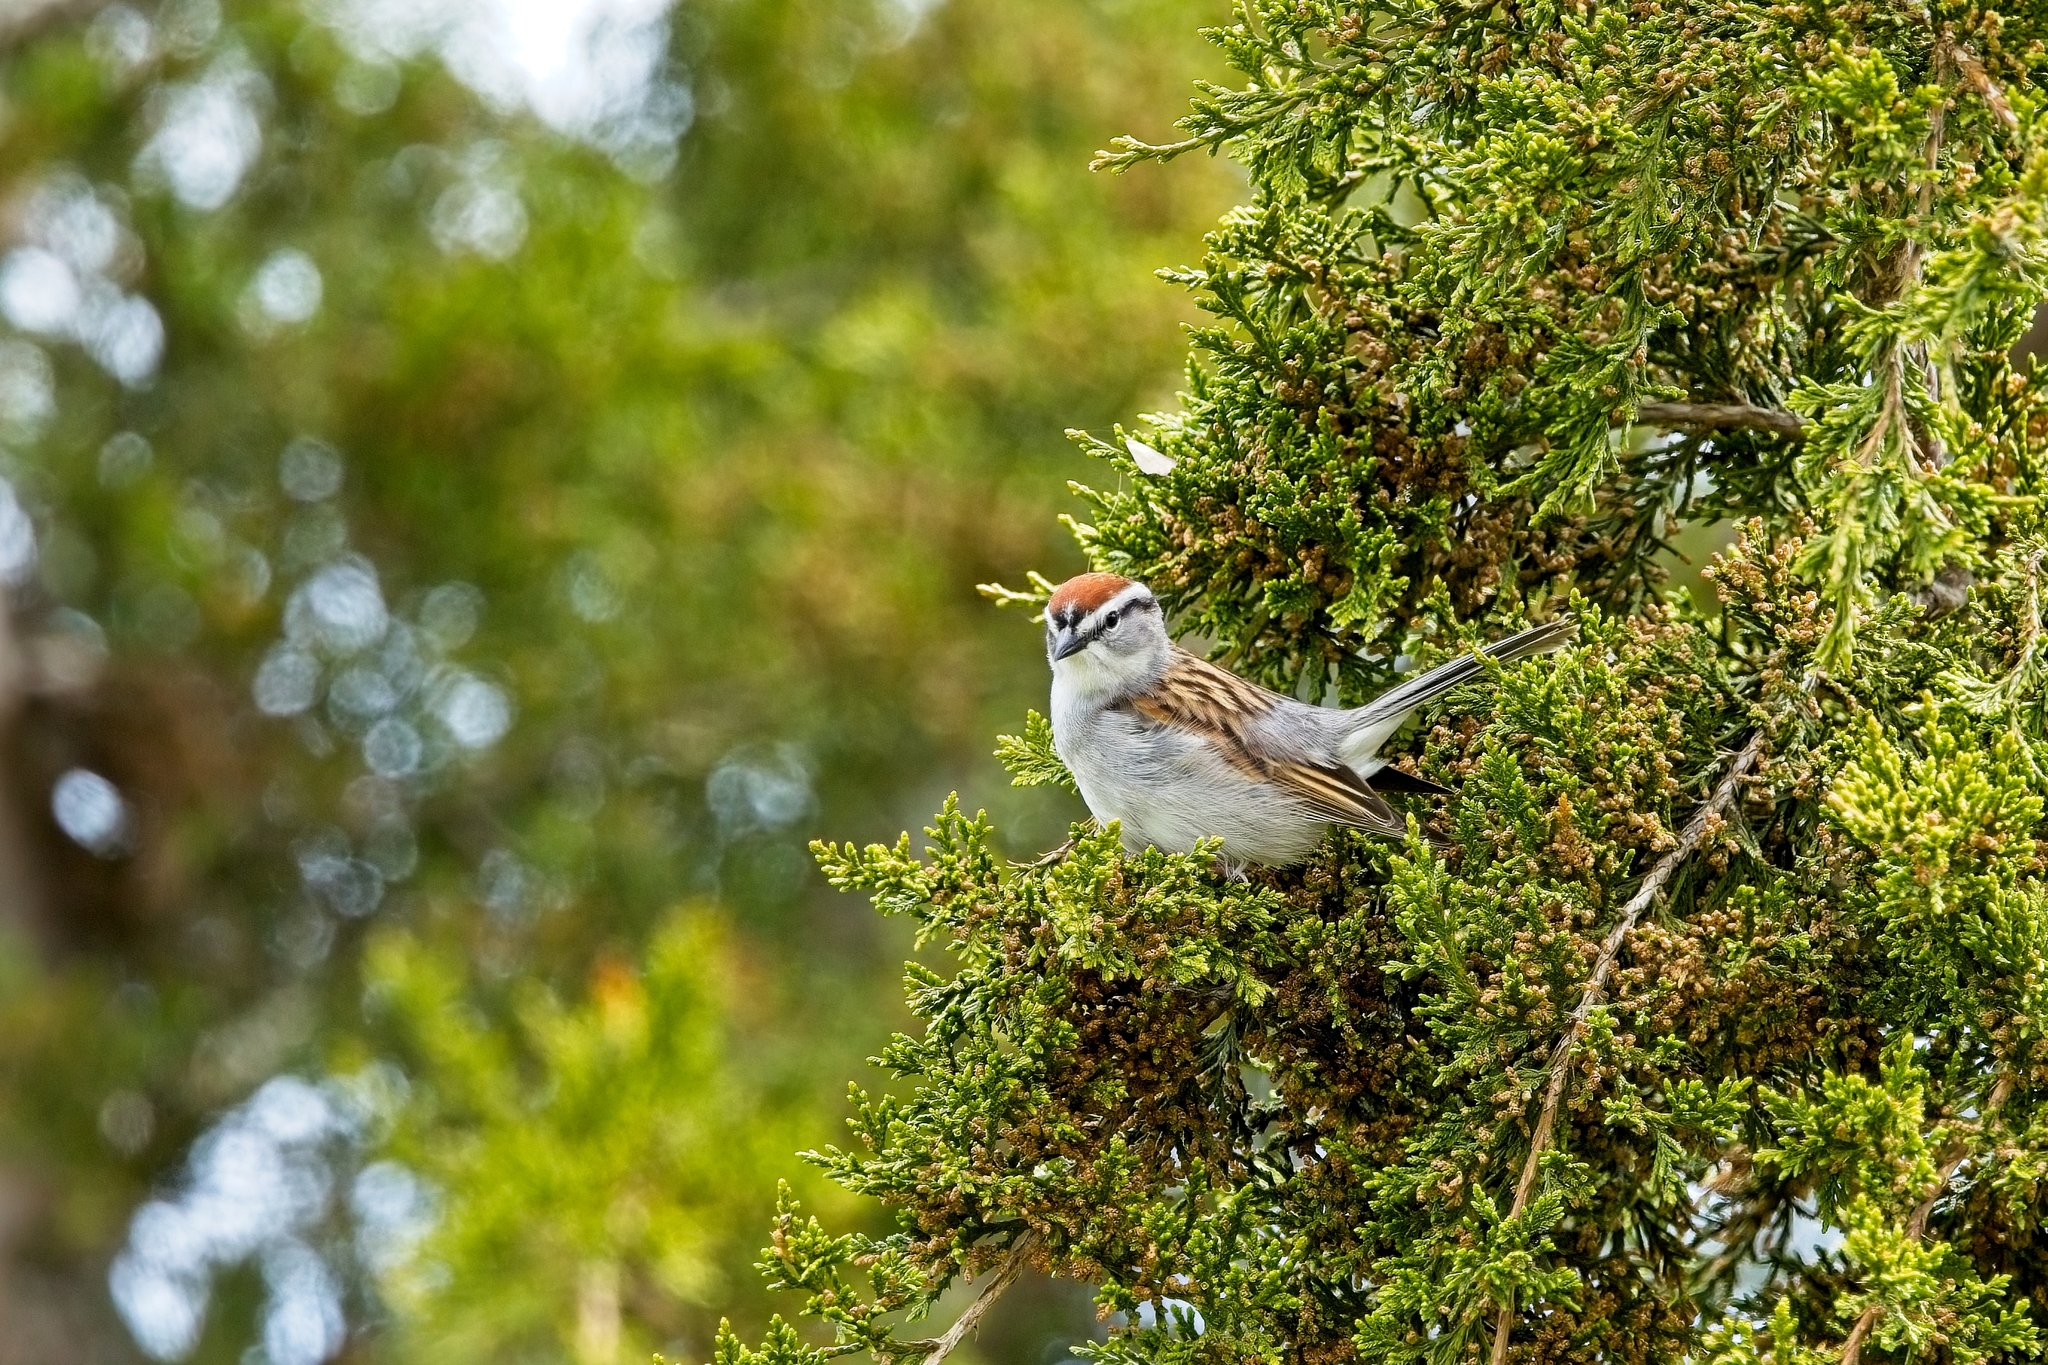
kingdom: Animalia
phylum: Chordata
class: Aves
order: Passeriformes
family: Passerellidae
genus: Spizella
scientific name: Spizella passerina
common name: Chipping sparrow
